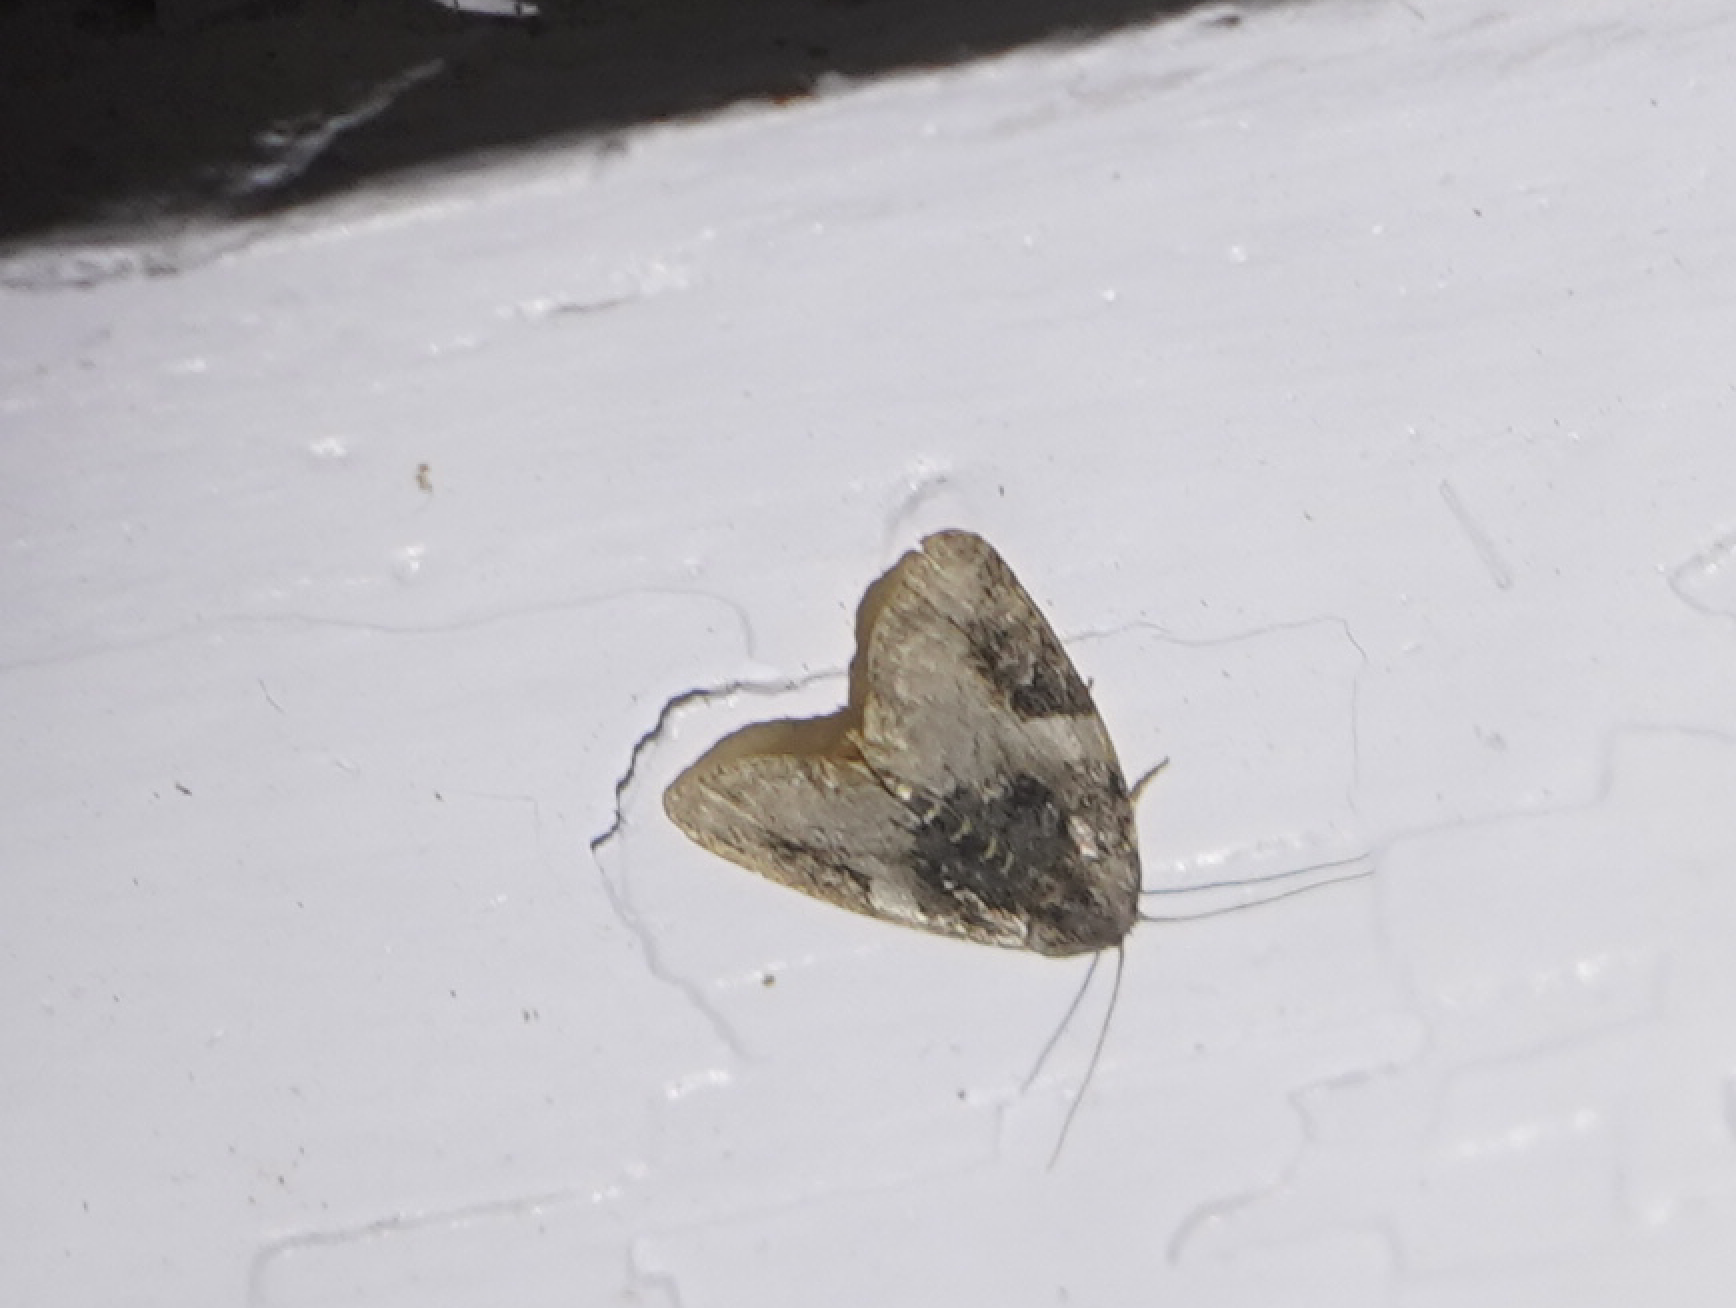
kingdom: Animalia
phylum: Arthropoda
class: Insecta
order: Lepidoptera
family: Noctuidae
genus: Pseudeustrotia
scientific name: Pseudeustrotia carneola
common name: Pink-barred lithacodia moth
